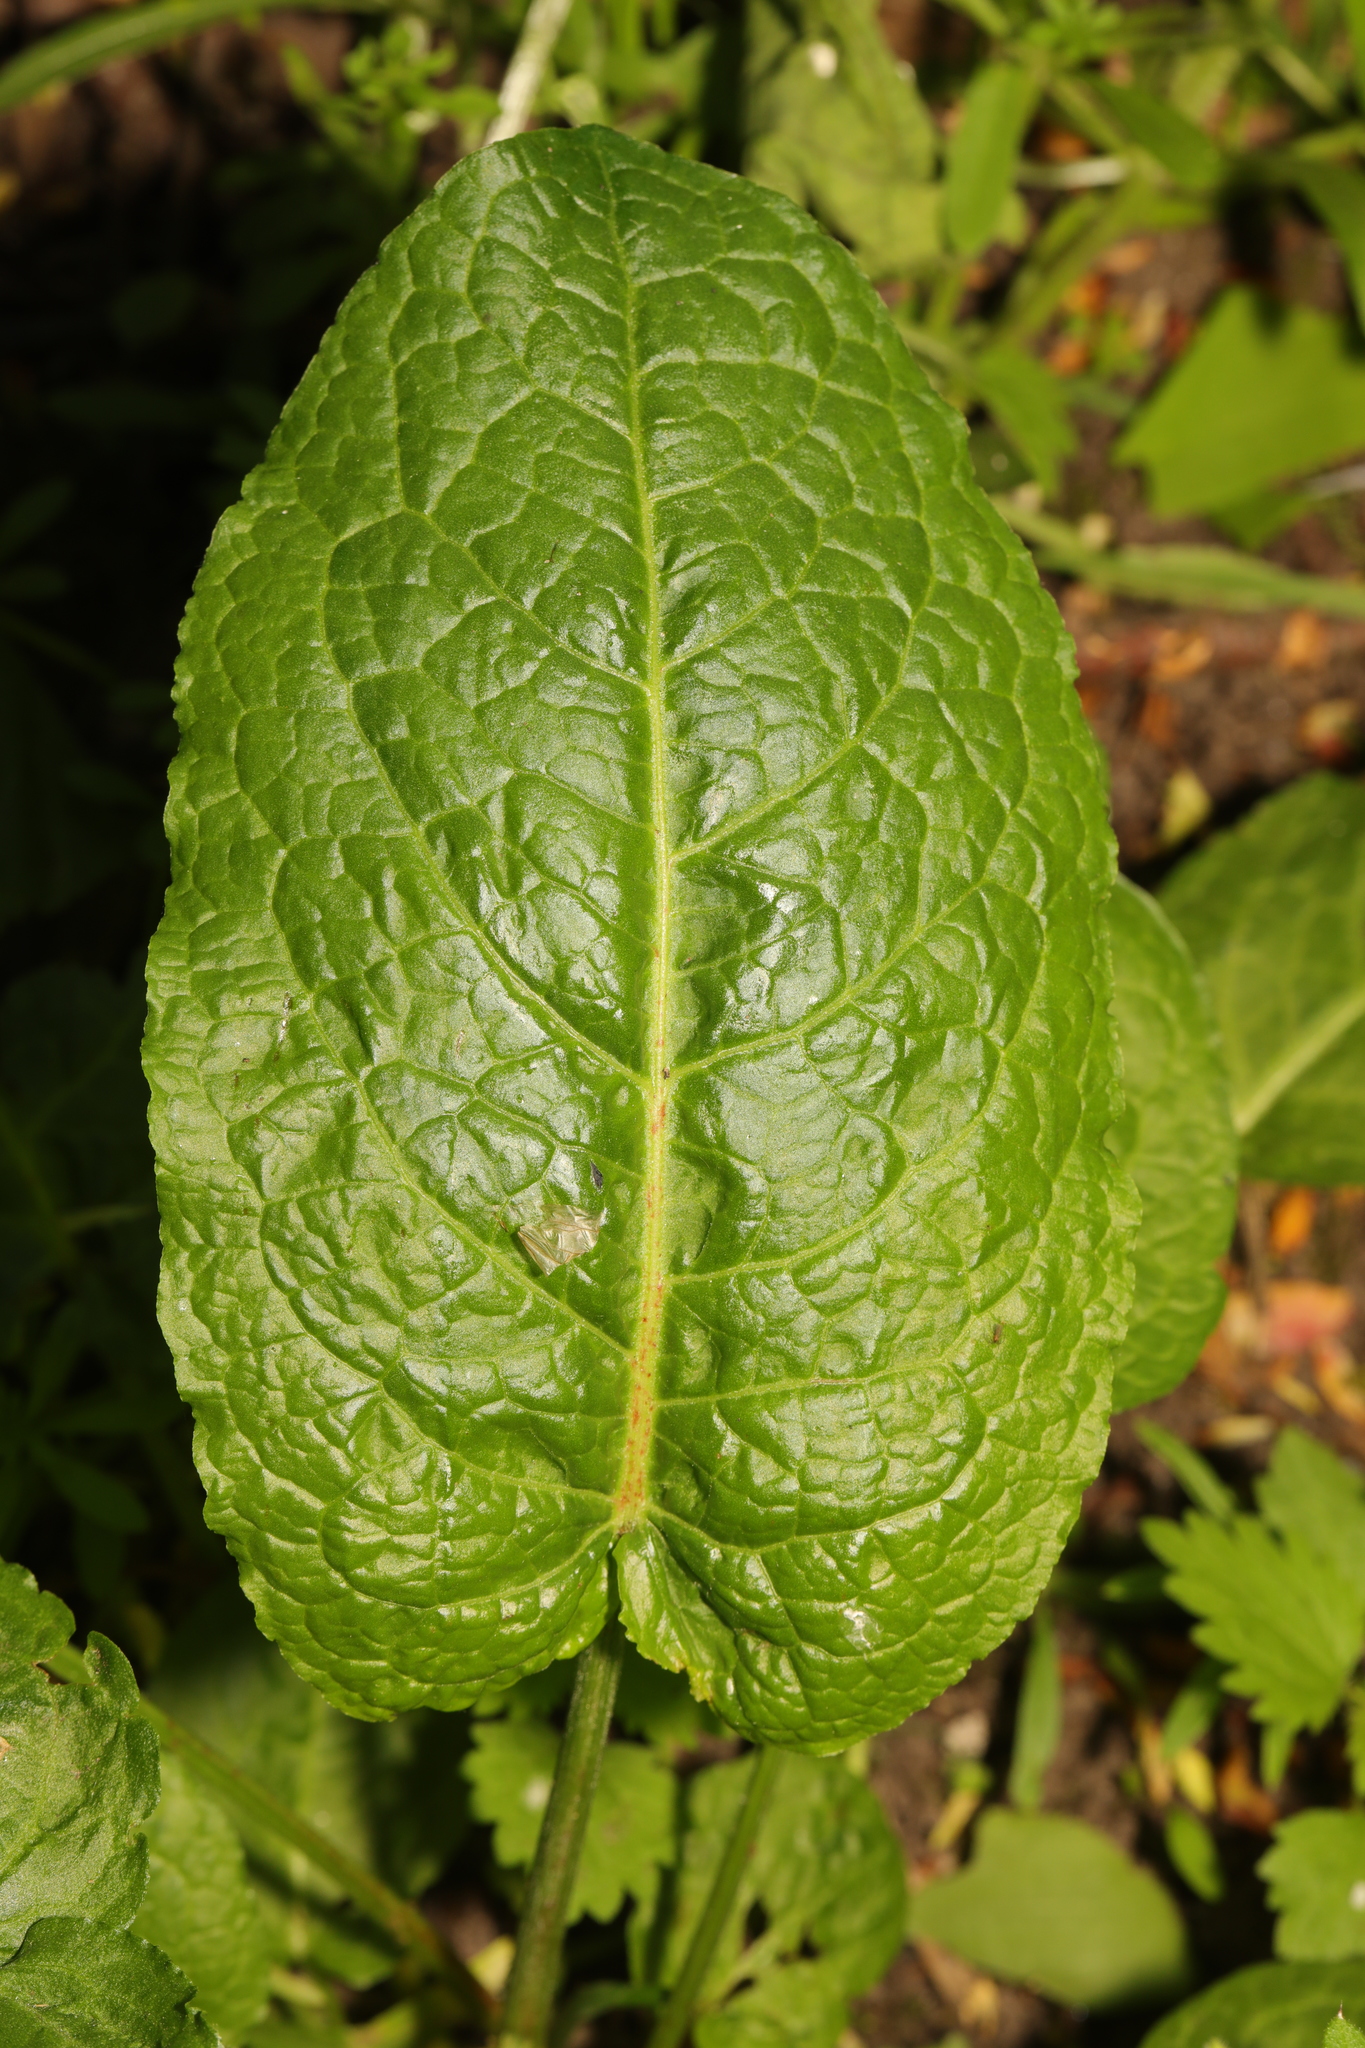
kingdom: Plantae
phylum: Tracheophyta
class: Magnoliopsida
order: Caryophyllales
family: Polygonaceae
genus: Rumex
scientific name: Rumex obtusifolius
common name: Bitter dock
